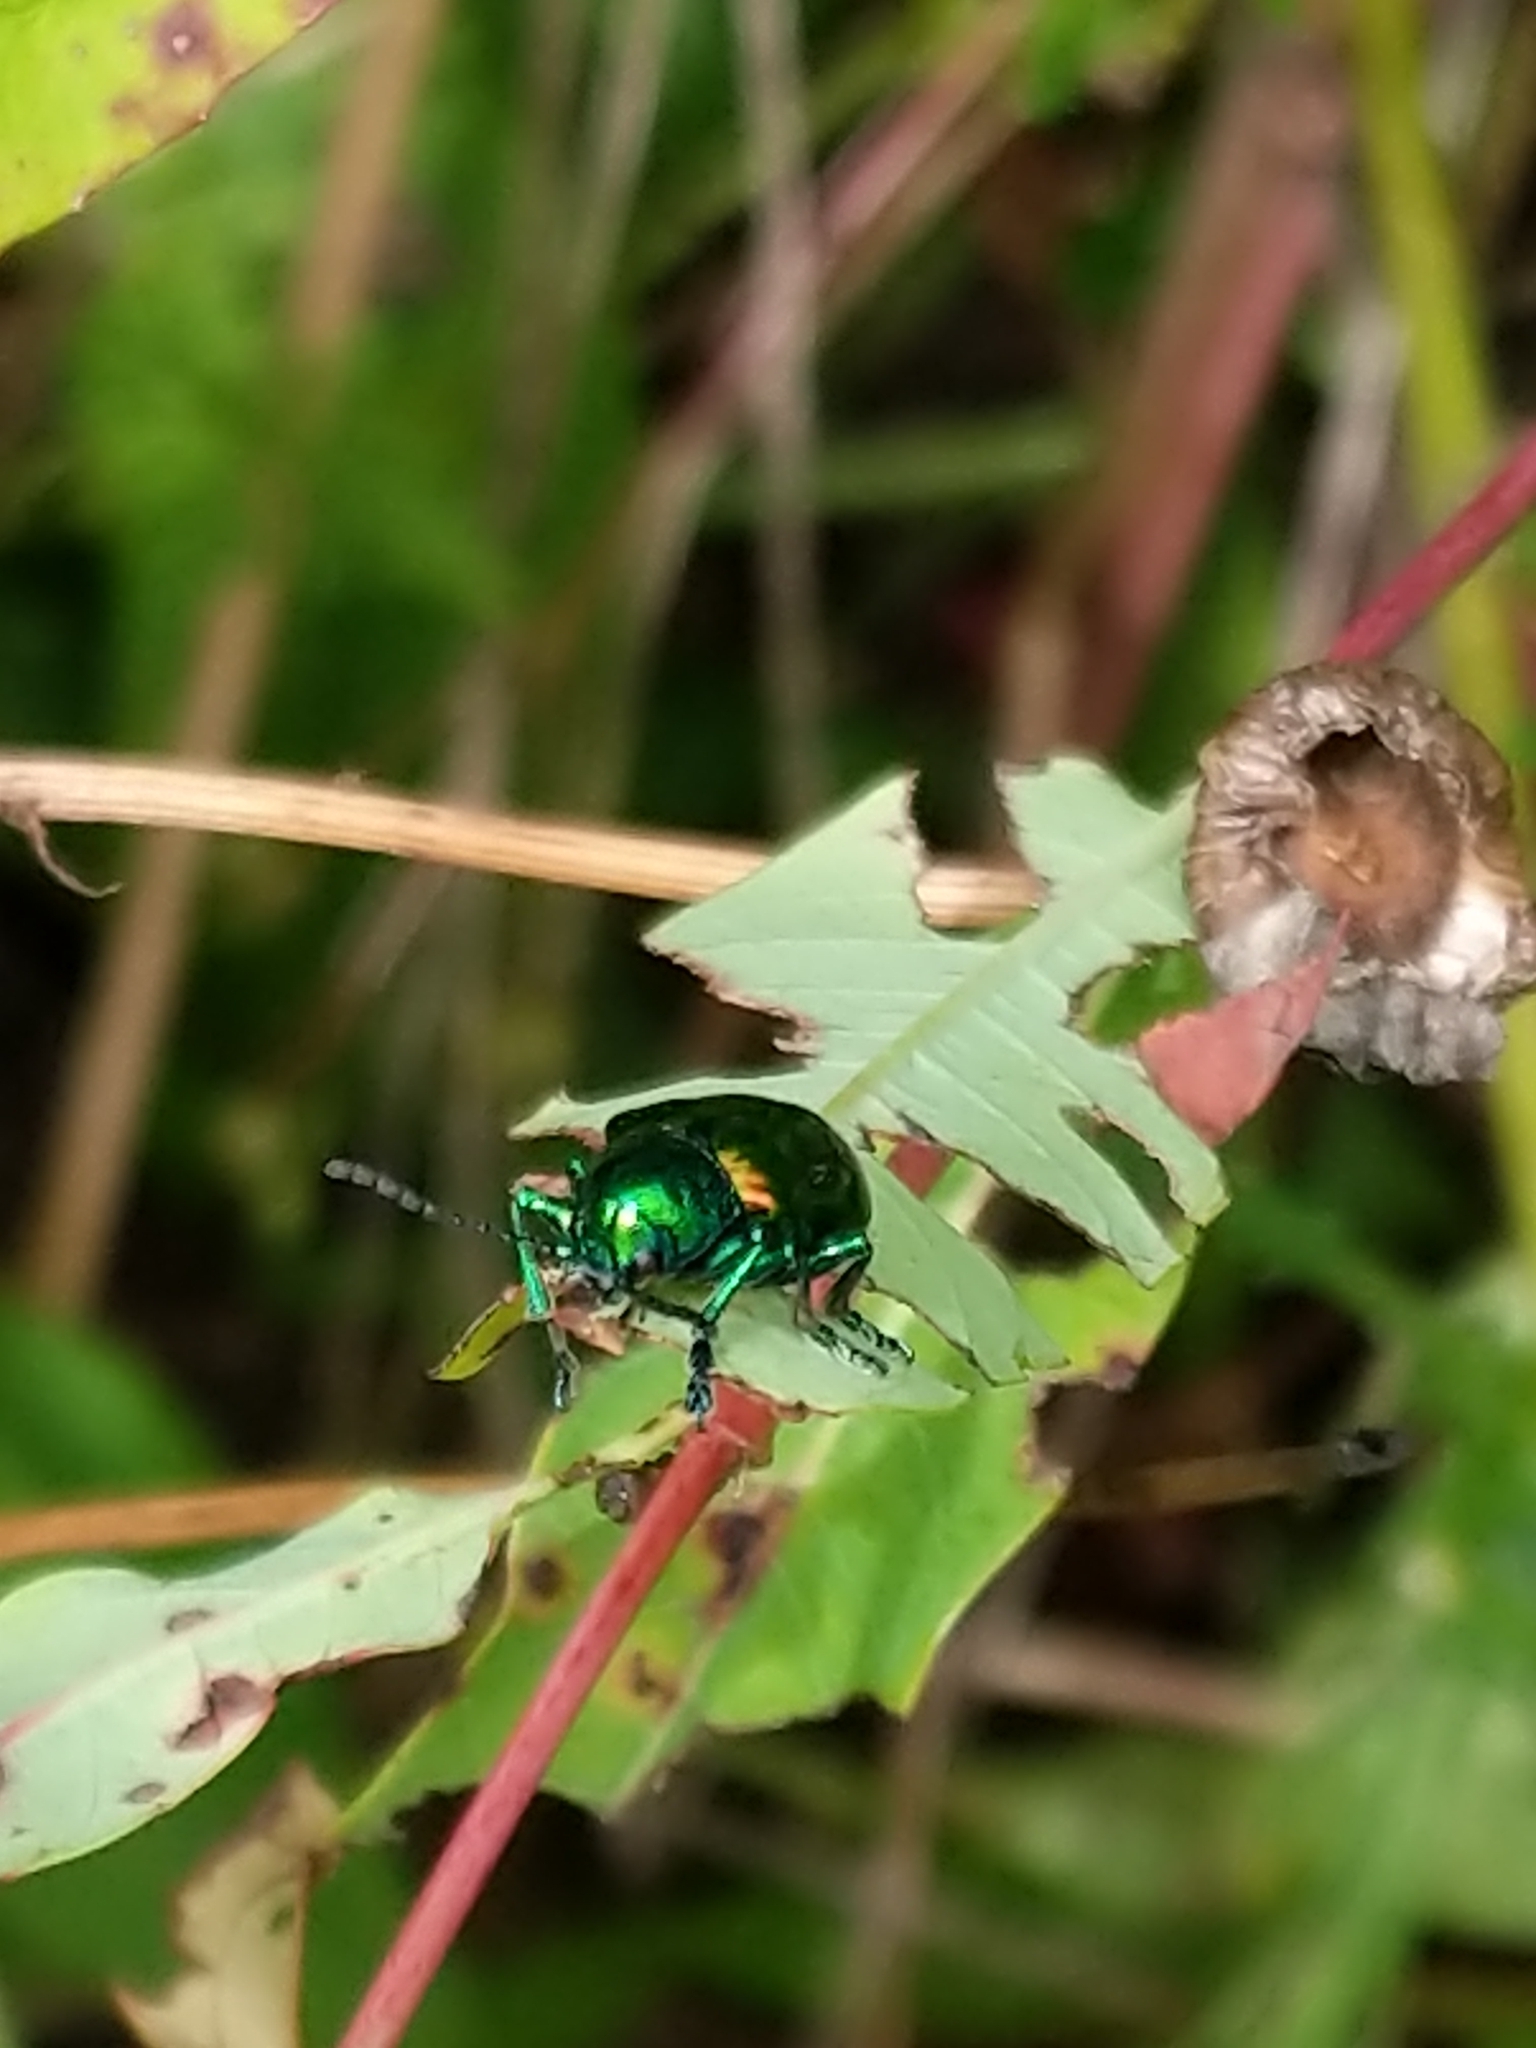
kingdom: Animalia
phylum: Arthropoda
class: Insecta
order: Coleoptera
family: Chrysomelidae
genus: Chrysochus
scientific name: Chrysochus auratus
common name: Dogbane leaf beetle
